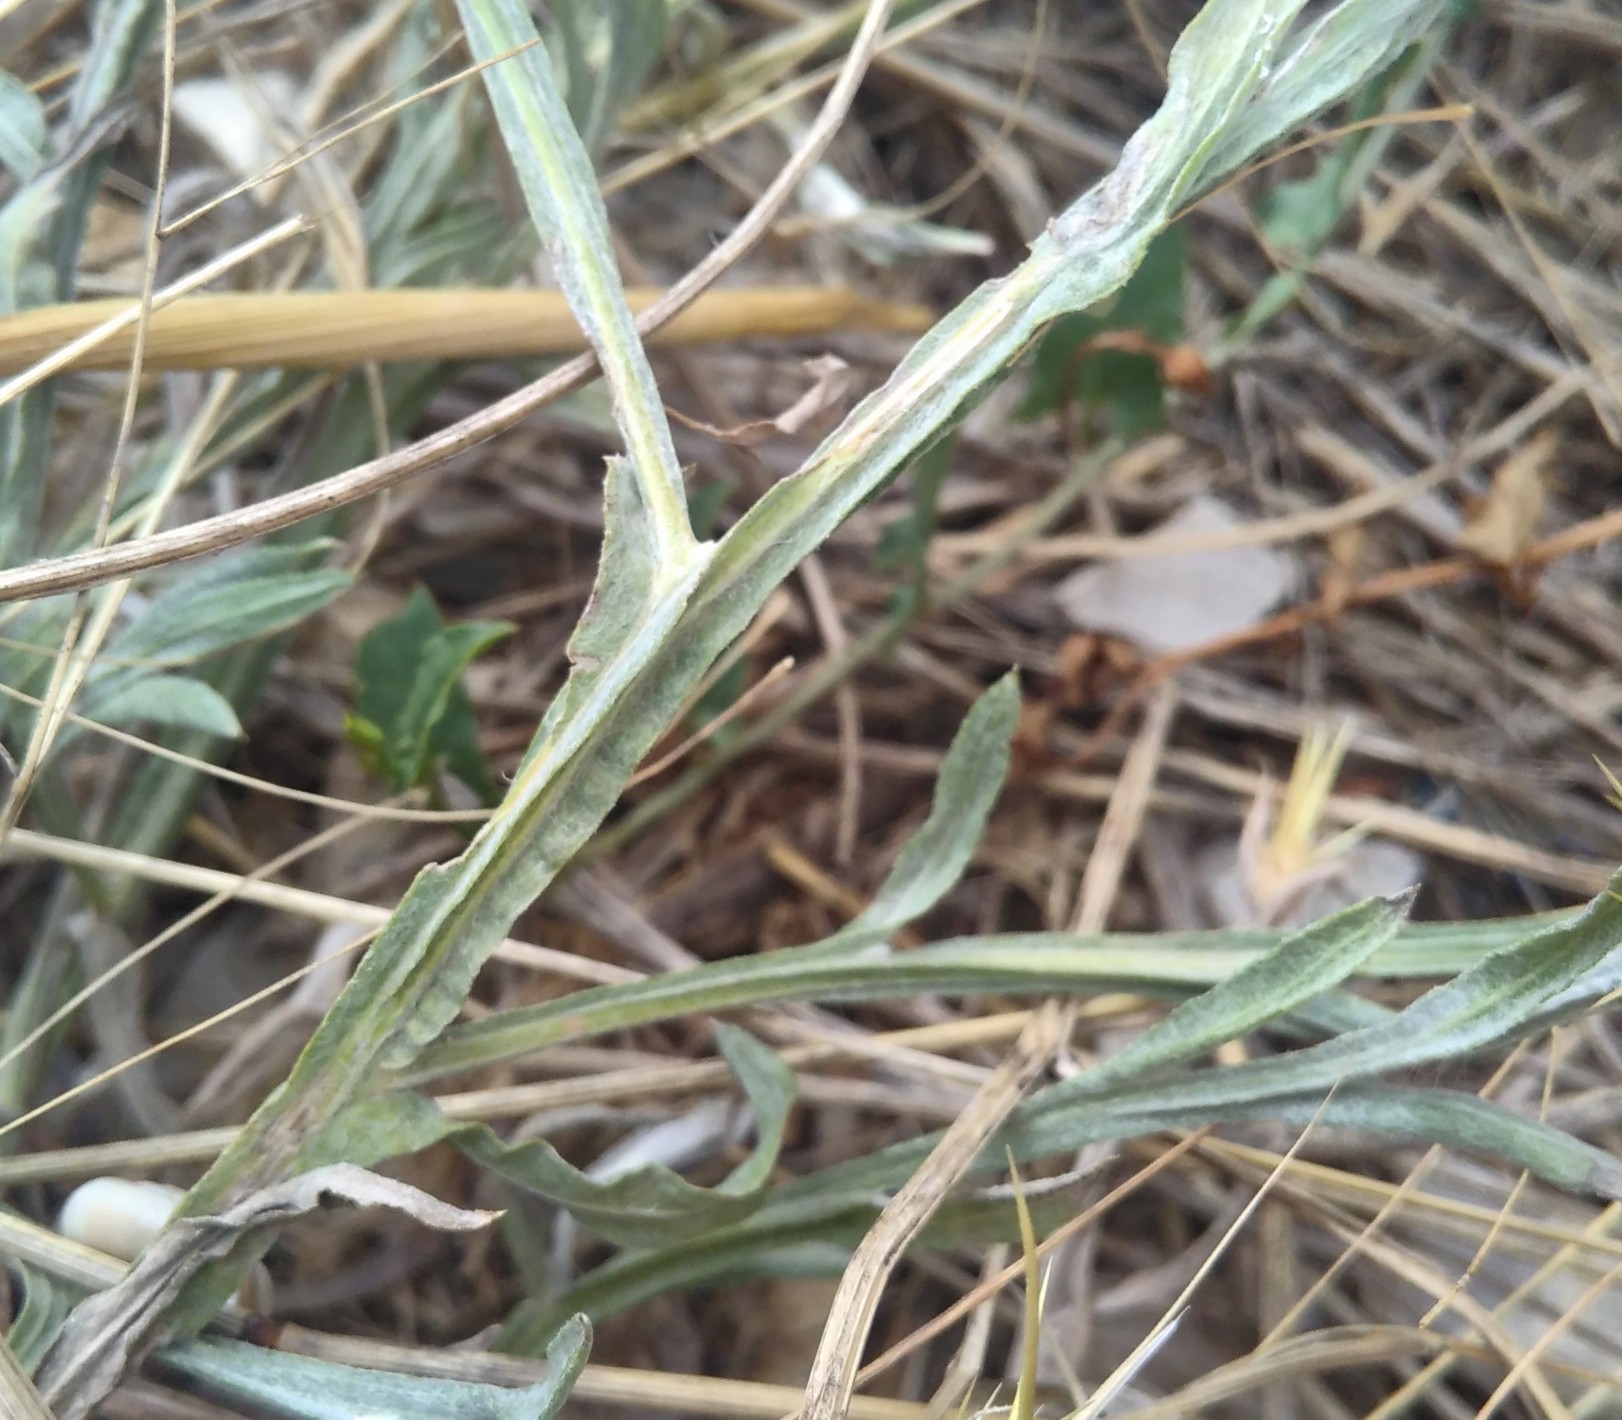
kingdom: Plantae
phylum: Tracheophyta
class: Magnoliopsida
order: Asterales
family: Asteraceae
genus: Centaurea
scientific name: Centaurea solstitialis
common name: Yellow star-thistle
